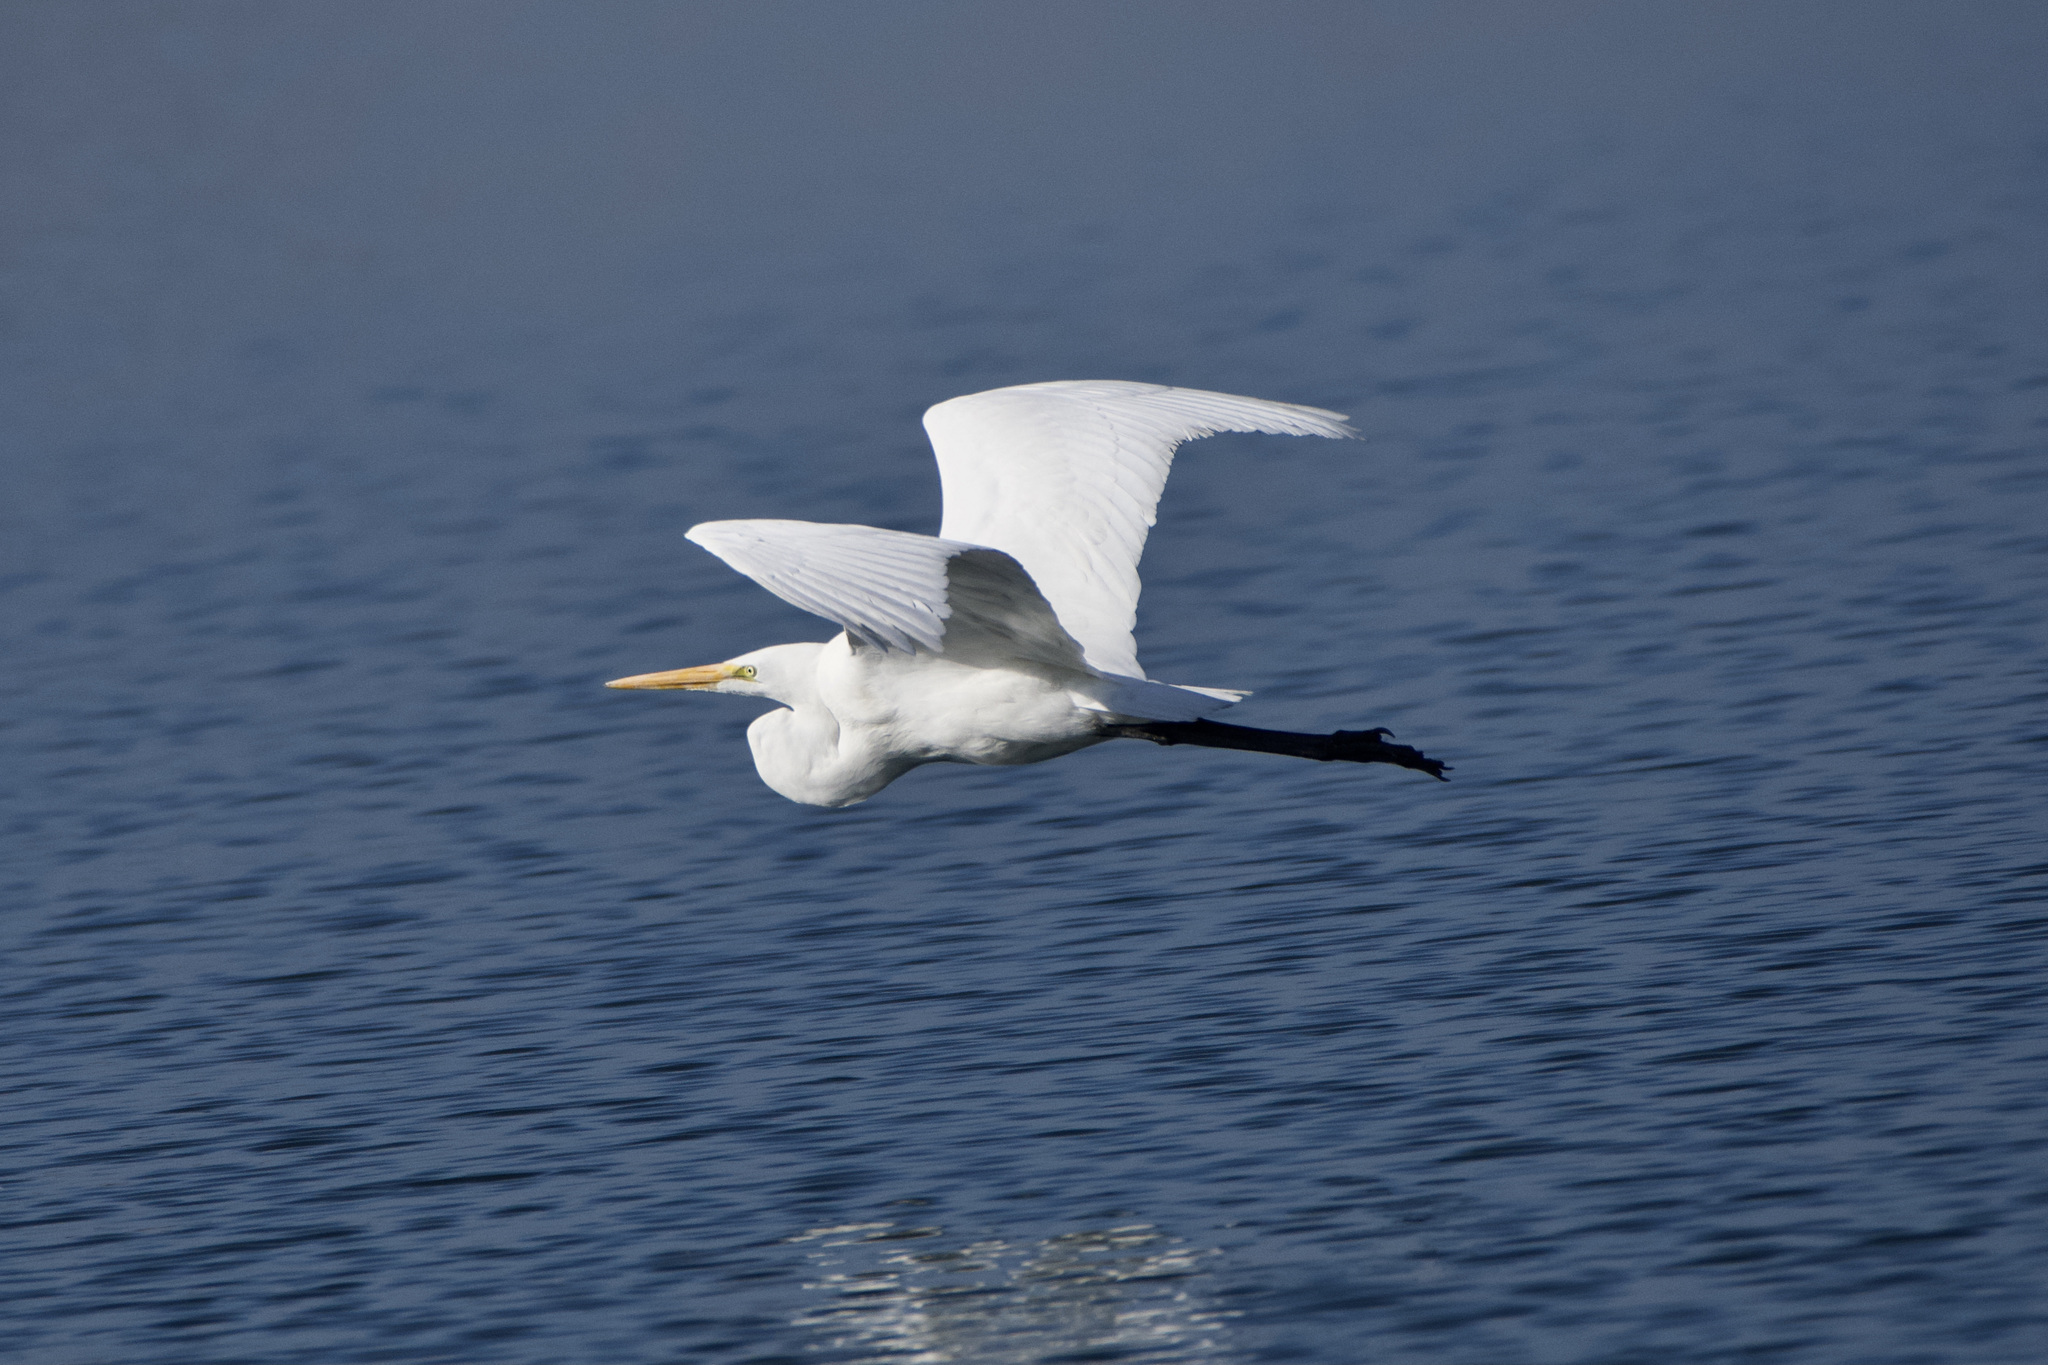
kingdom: Animalia
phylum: Chordata
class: Aves
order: Pelecaniformes
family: Ardeidae
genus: Ardea
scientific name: Ardea alba
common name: Great egret
